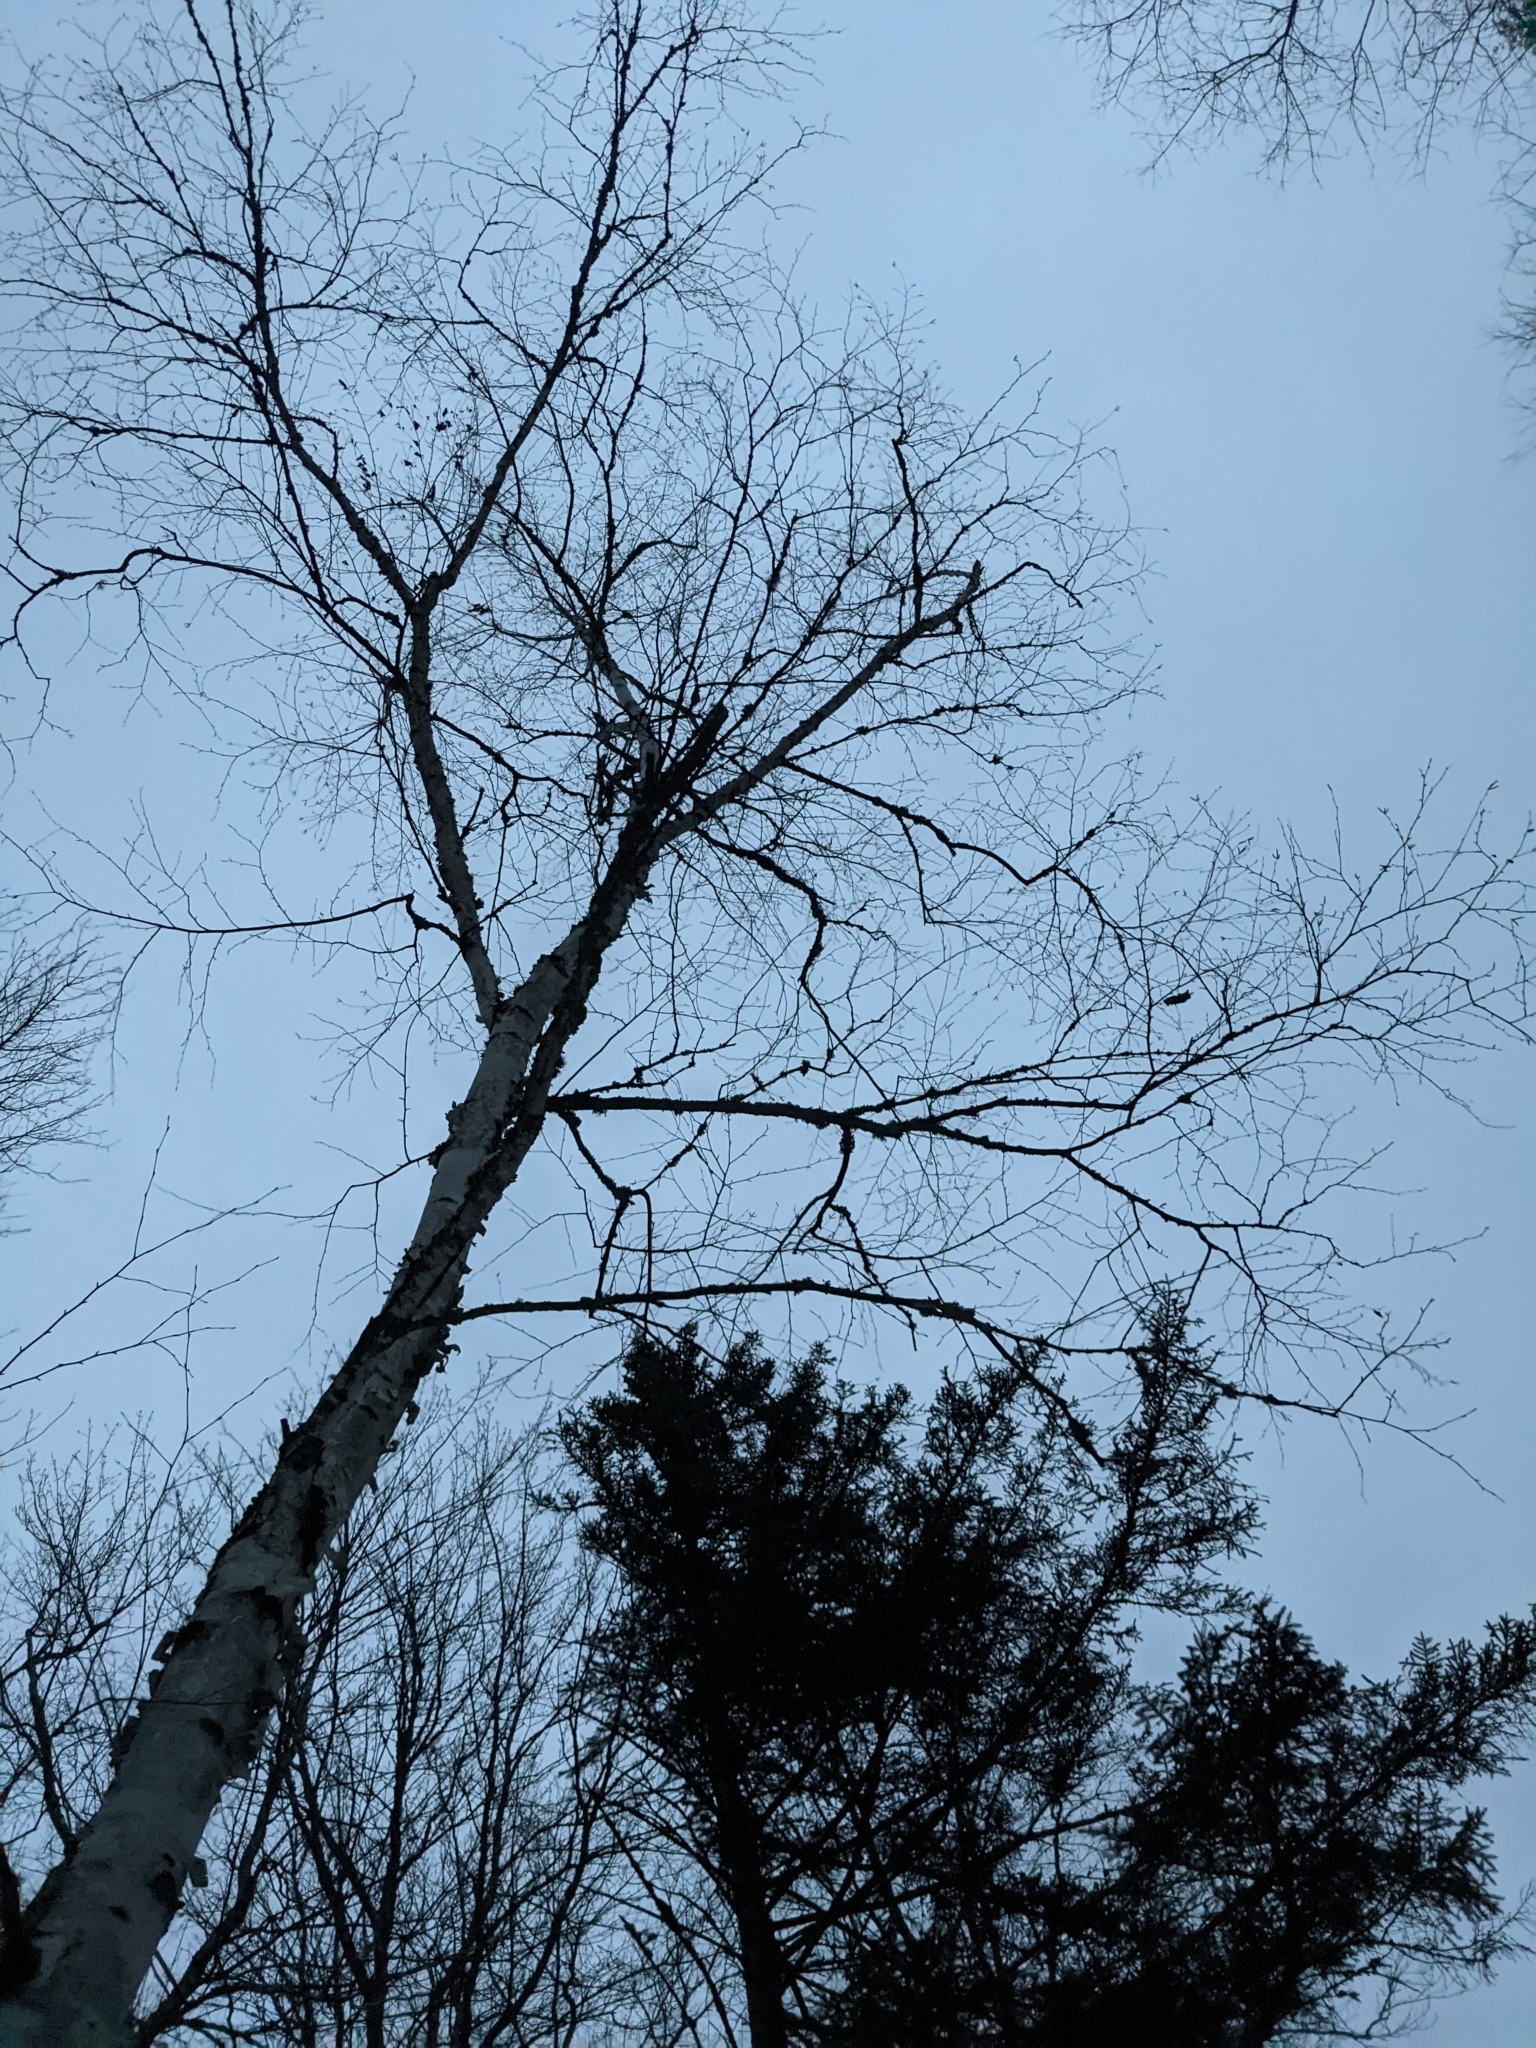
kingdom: Plantae
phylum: Tracheophyta
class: Magnoliopsida
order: Fagales
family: Betulaceae
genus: Betula
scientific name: Betula papyrifera
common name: Paper birch
